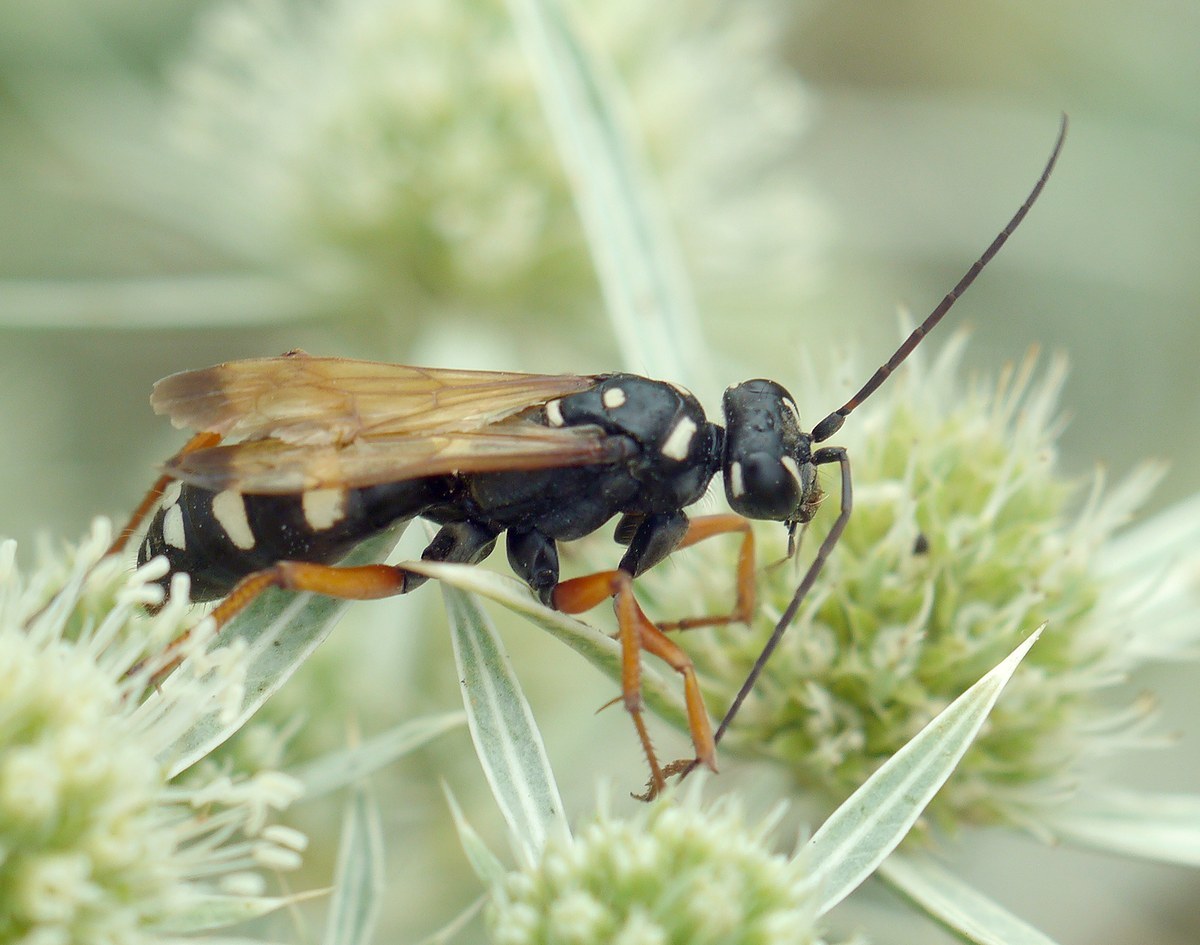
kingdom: Animalia
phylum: Arthropoda
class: Insecta
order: Hymenoptera
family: Pompilidae
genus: Cryptocheilus
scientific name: Cryptocheilus variabilis
